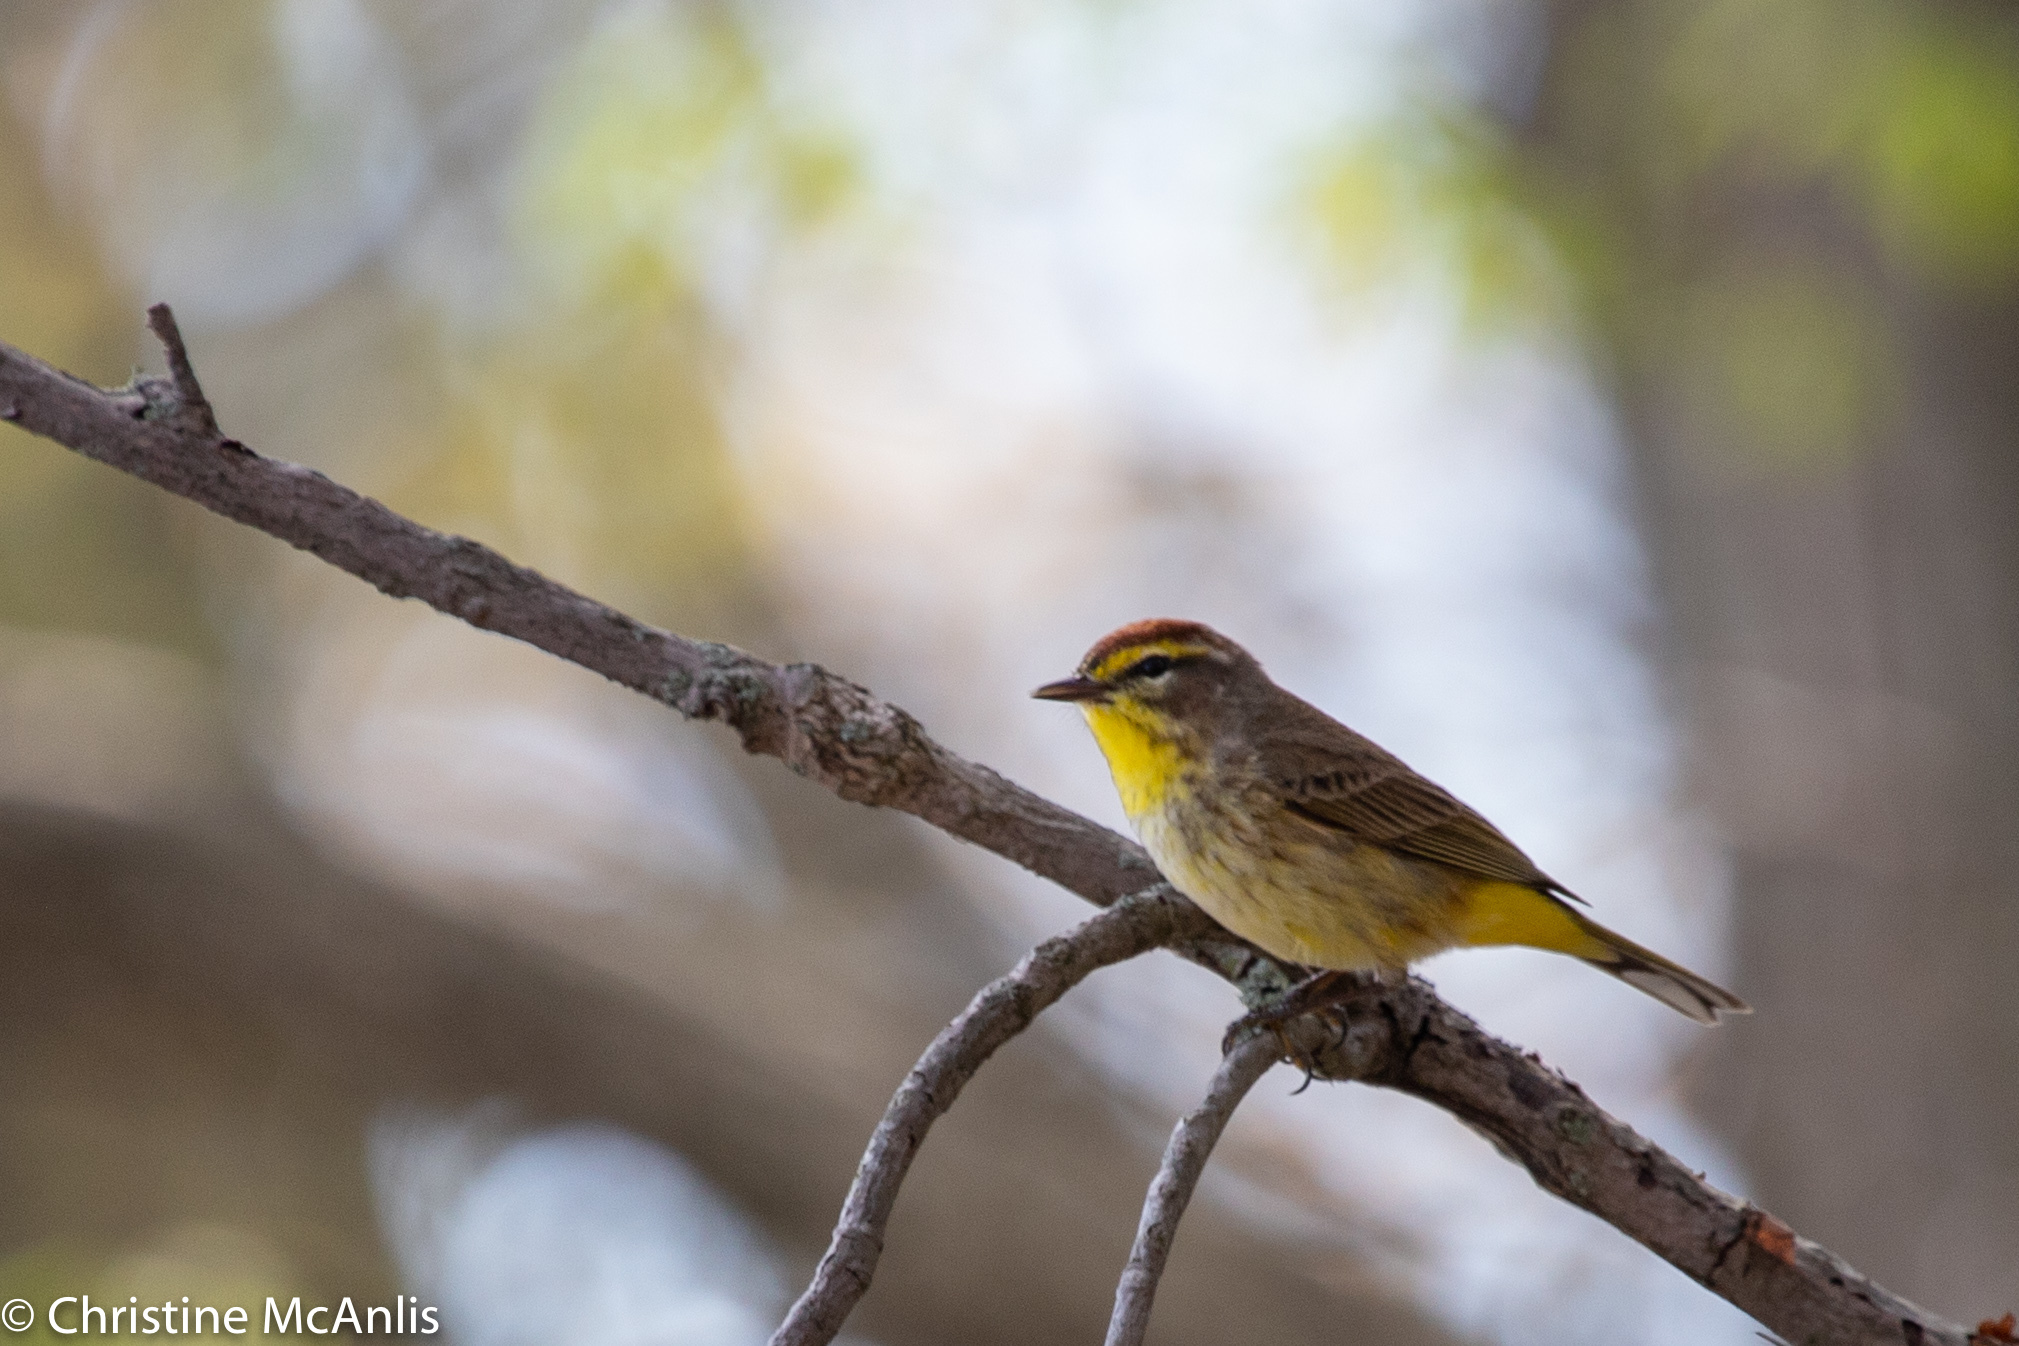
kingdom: Animalia
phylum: Chordata
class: Aves
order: Passeriformes
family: Parulidae
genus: Setophaga
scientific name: Setophaga palmarum
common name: Palm warbler
